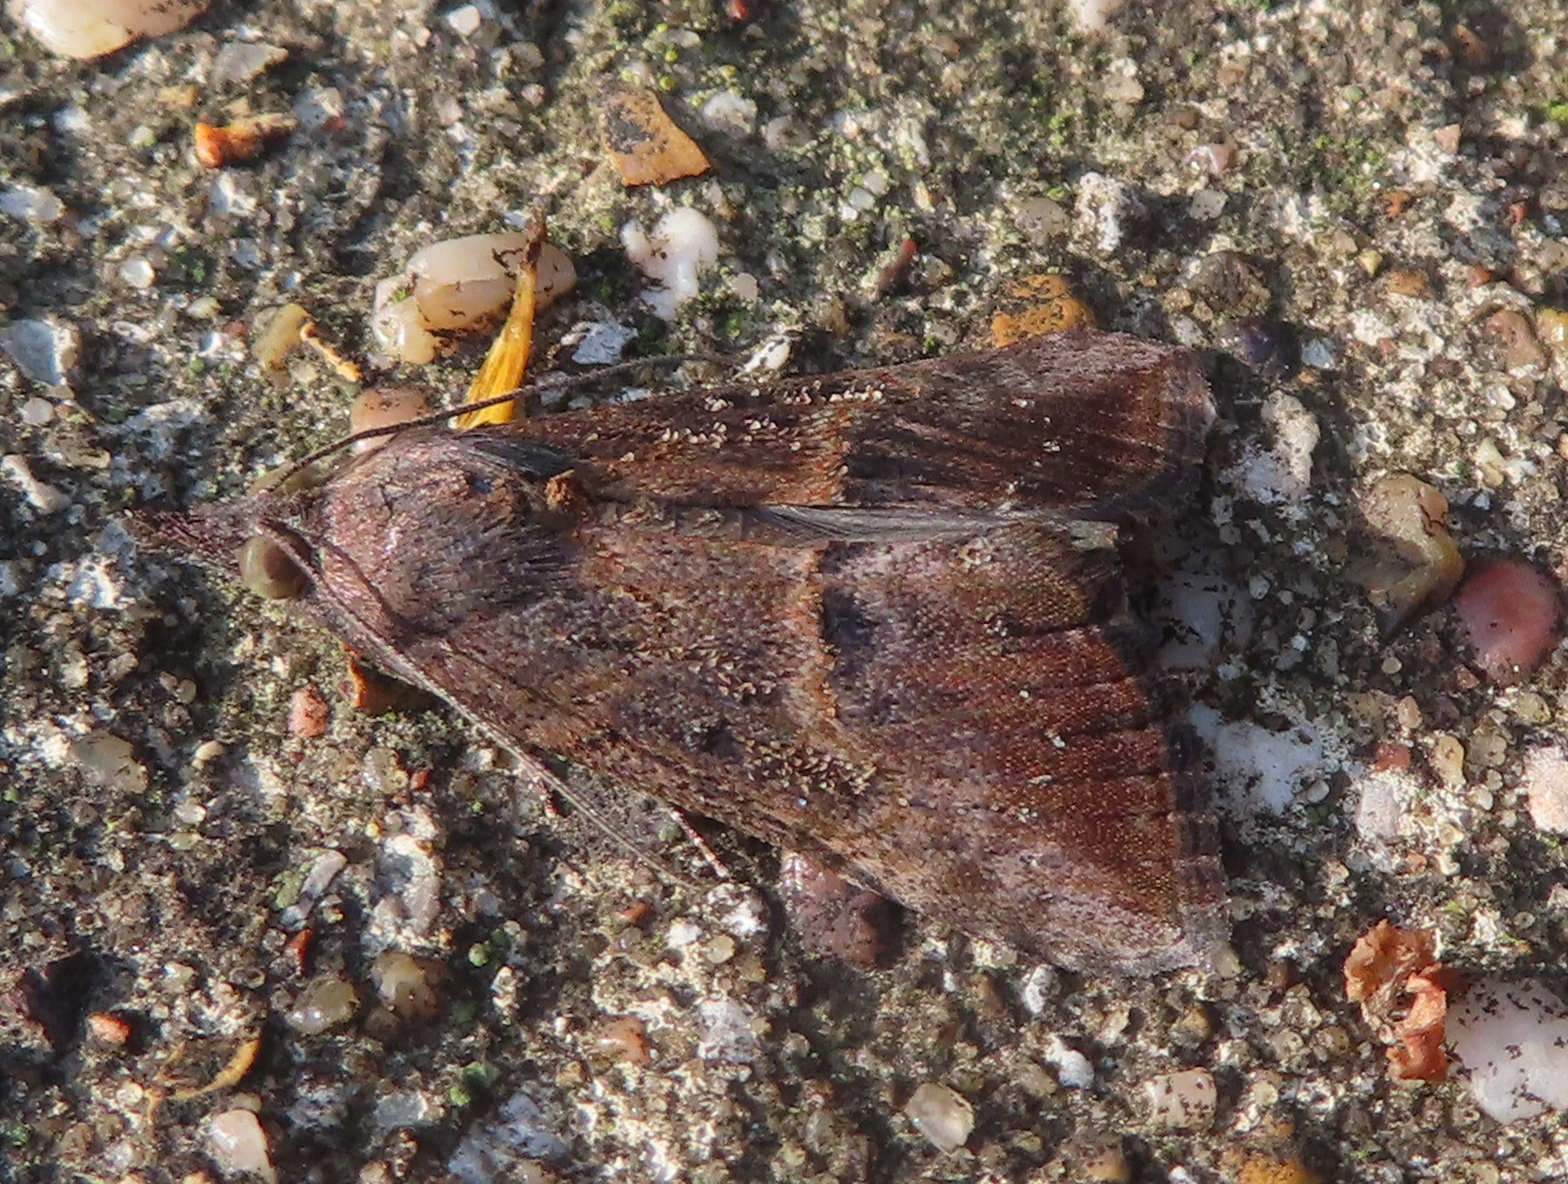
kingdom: Animalia
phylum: Arthropoda
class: Insecta
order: Lepidoptera
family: Erebidae
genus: Hypena
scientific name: Hypena scabra
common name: Green cloverworm
